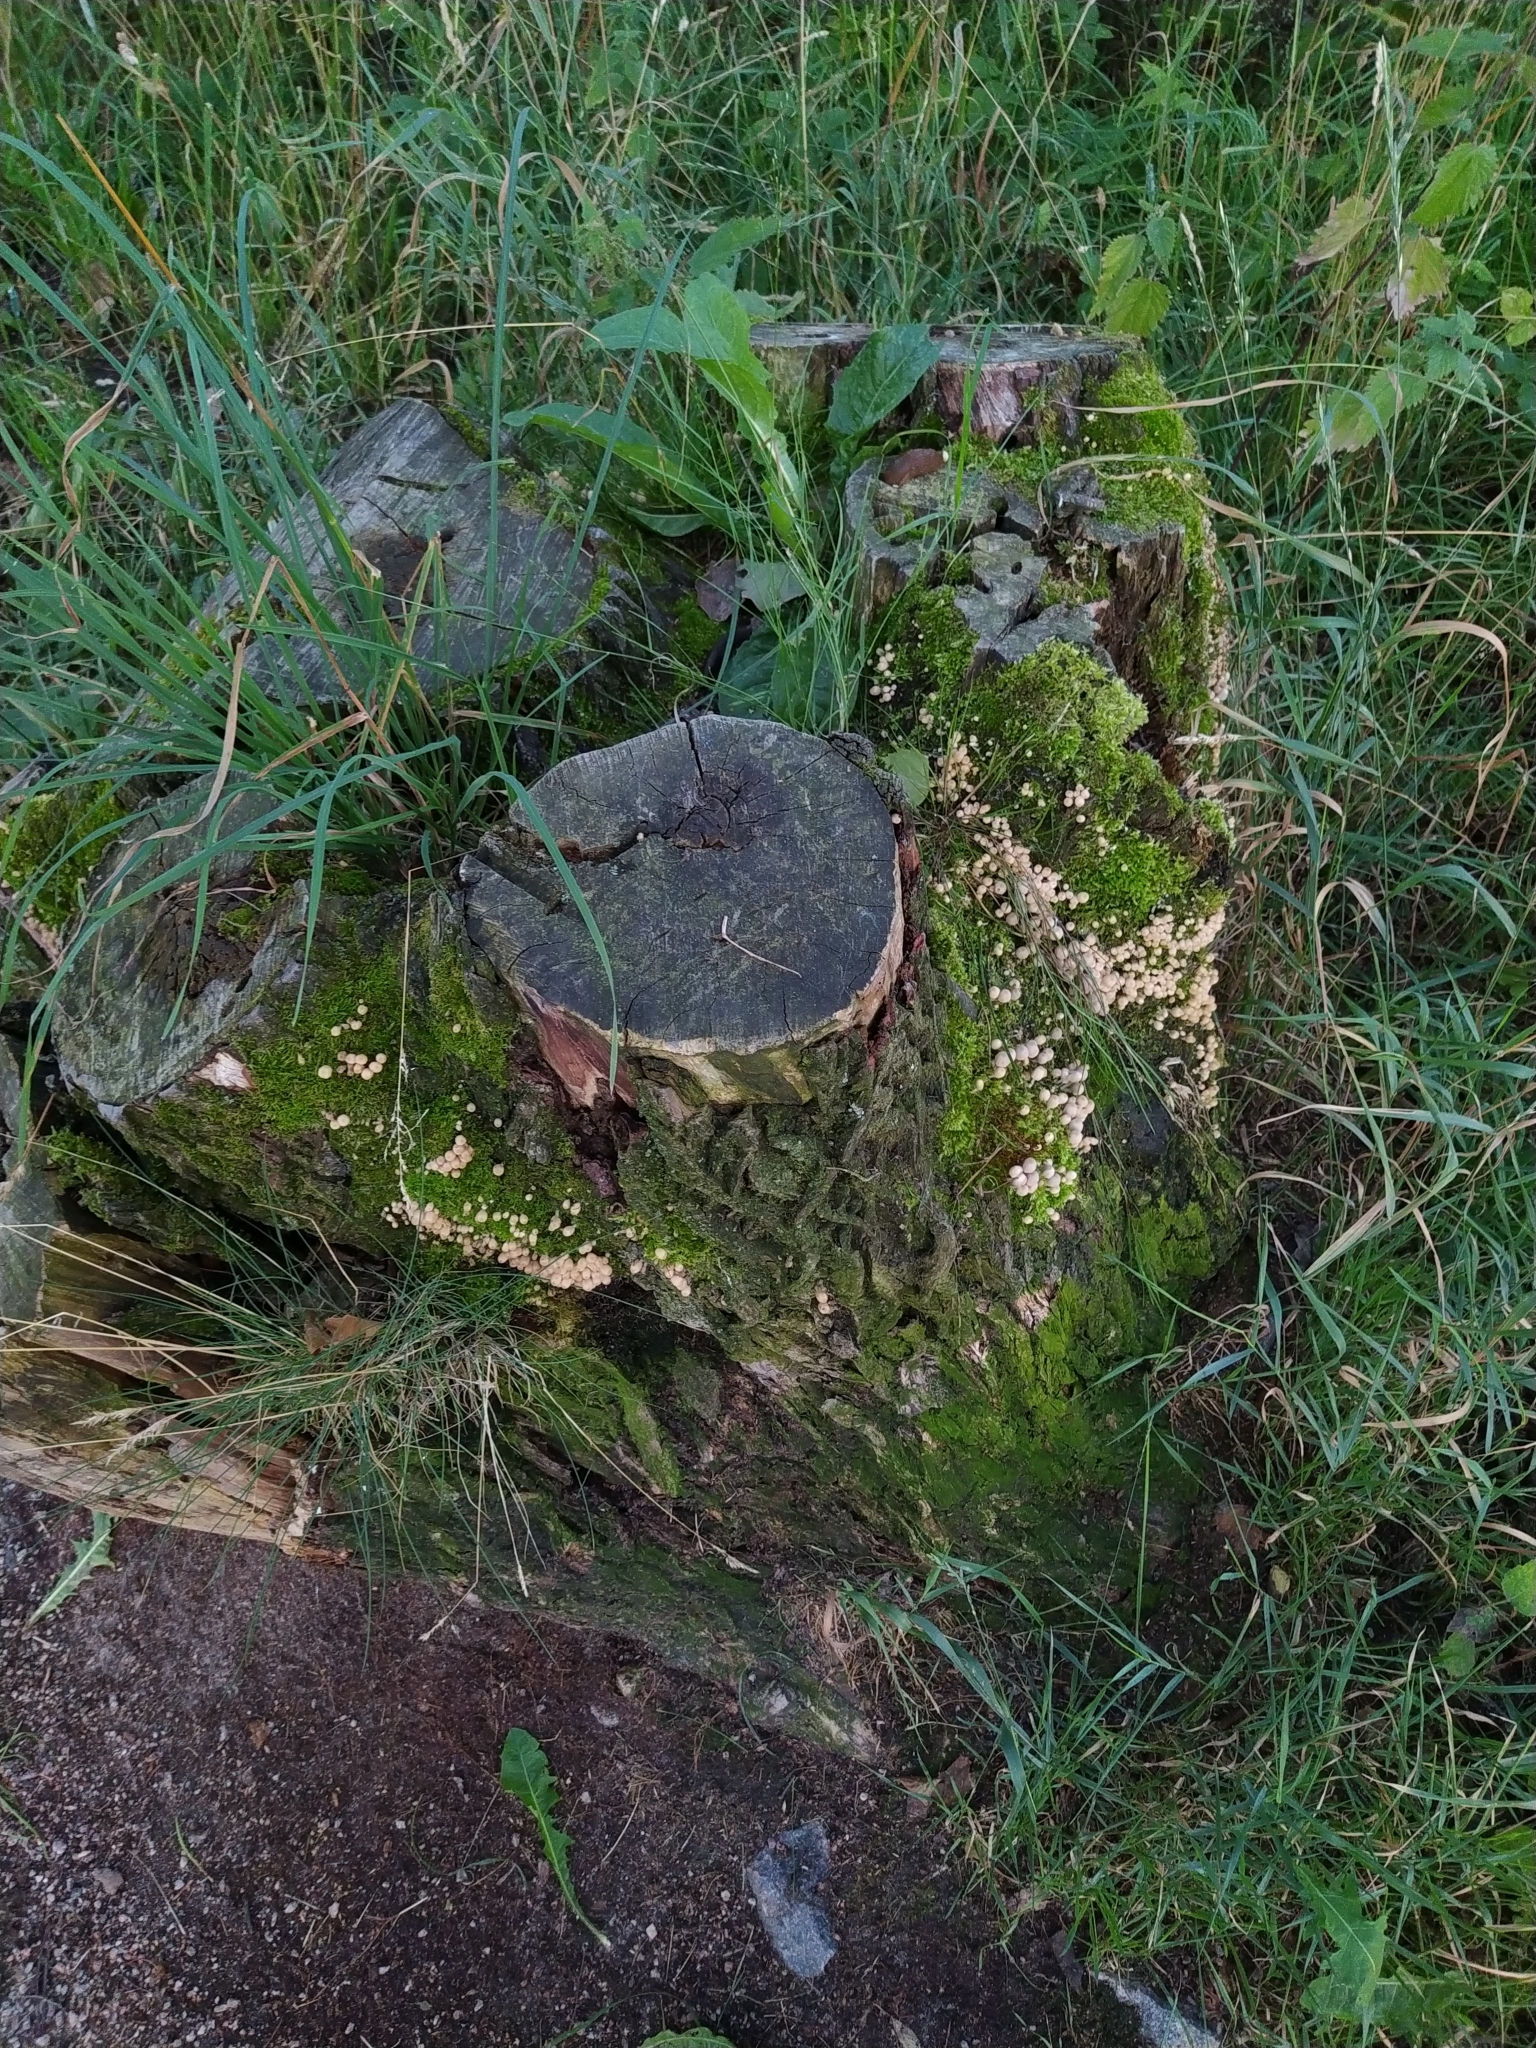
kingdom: Fungi
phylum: Basidiomycota
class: Agaricomycetes
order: Agaricales
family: Psathyrellaceae
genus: Coprinellus
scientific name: Coprinellus disseminatus
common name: Fairies' bonnets
